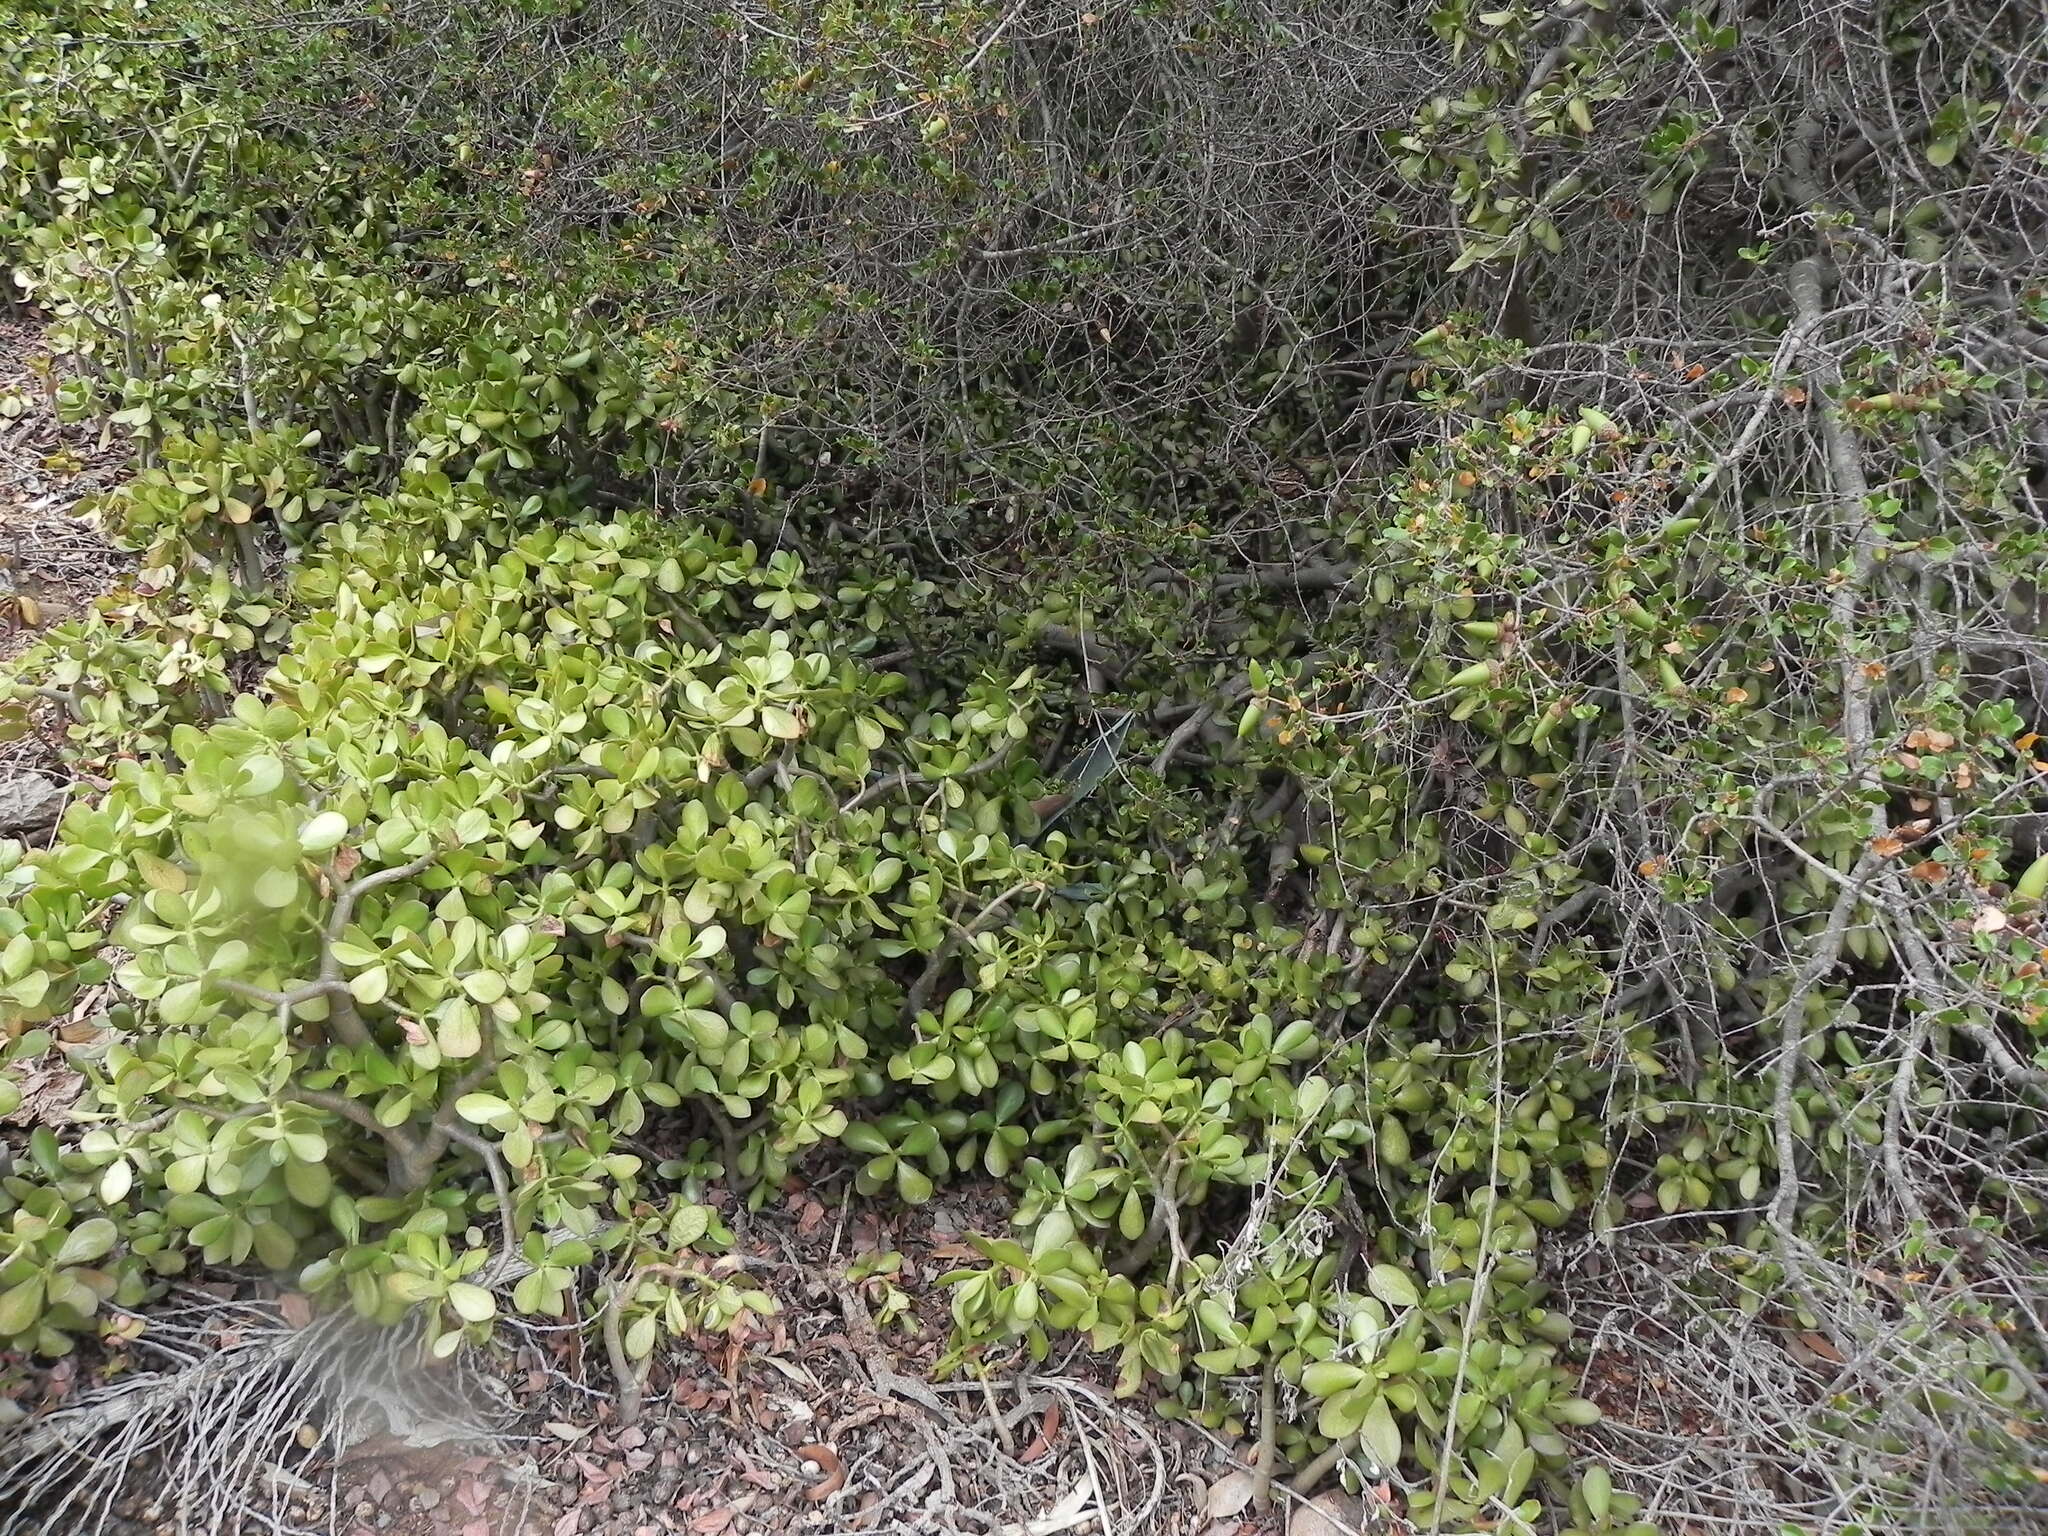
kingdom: Plantae
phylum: Tracheophyta
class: Magnoliopsida
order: Saxifragales
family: Crassulaceae
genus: Crassula
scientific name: Crassula ovata
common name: Jade plant
